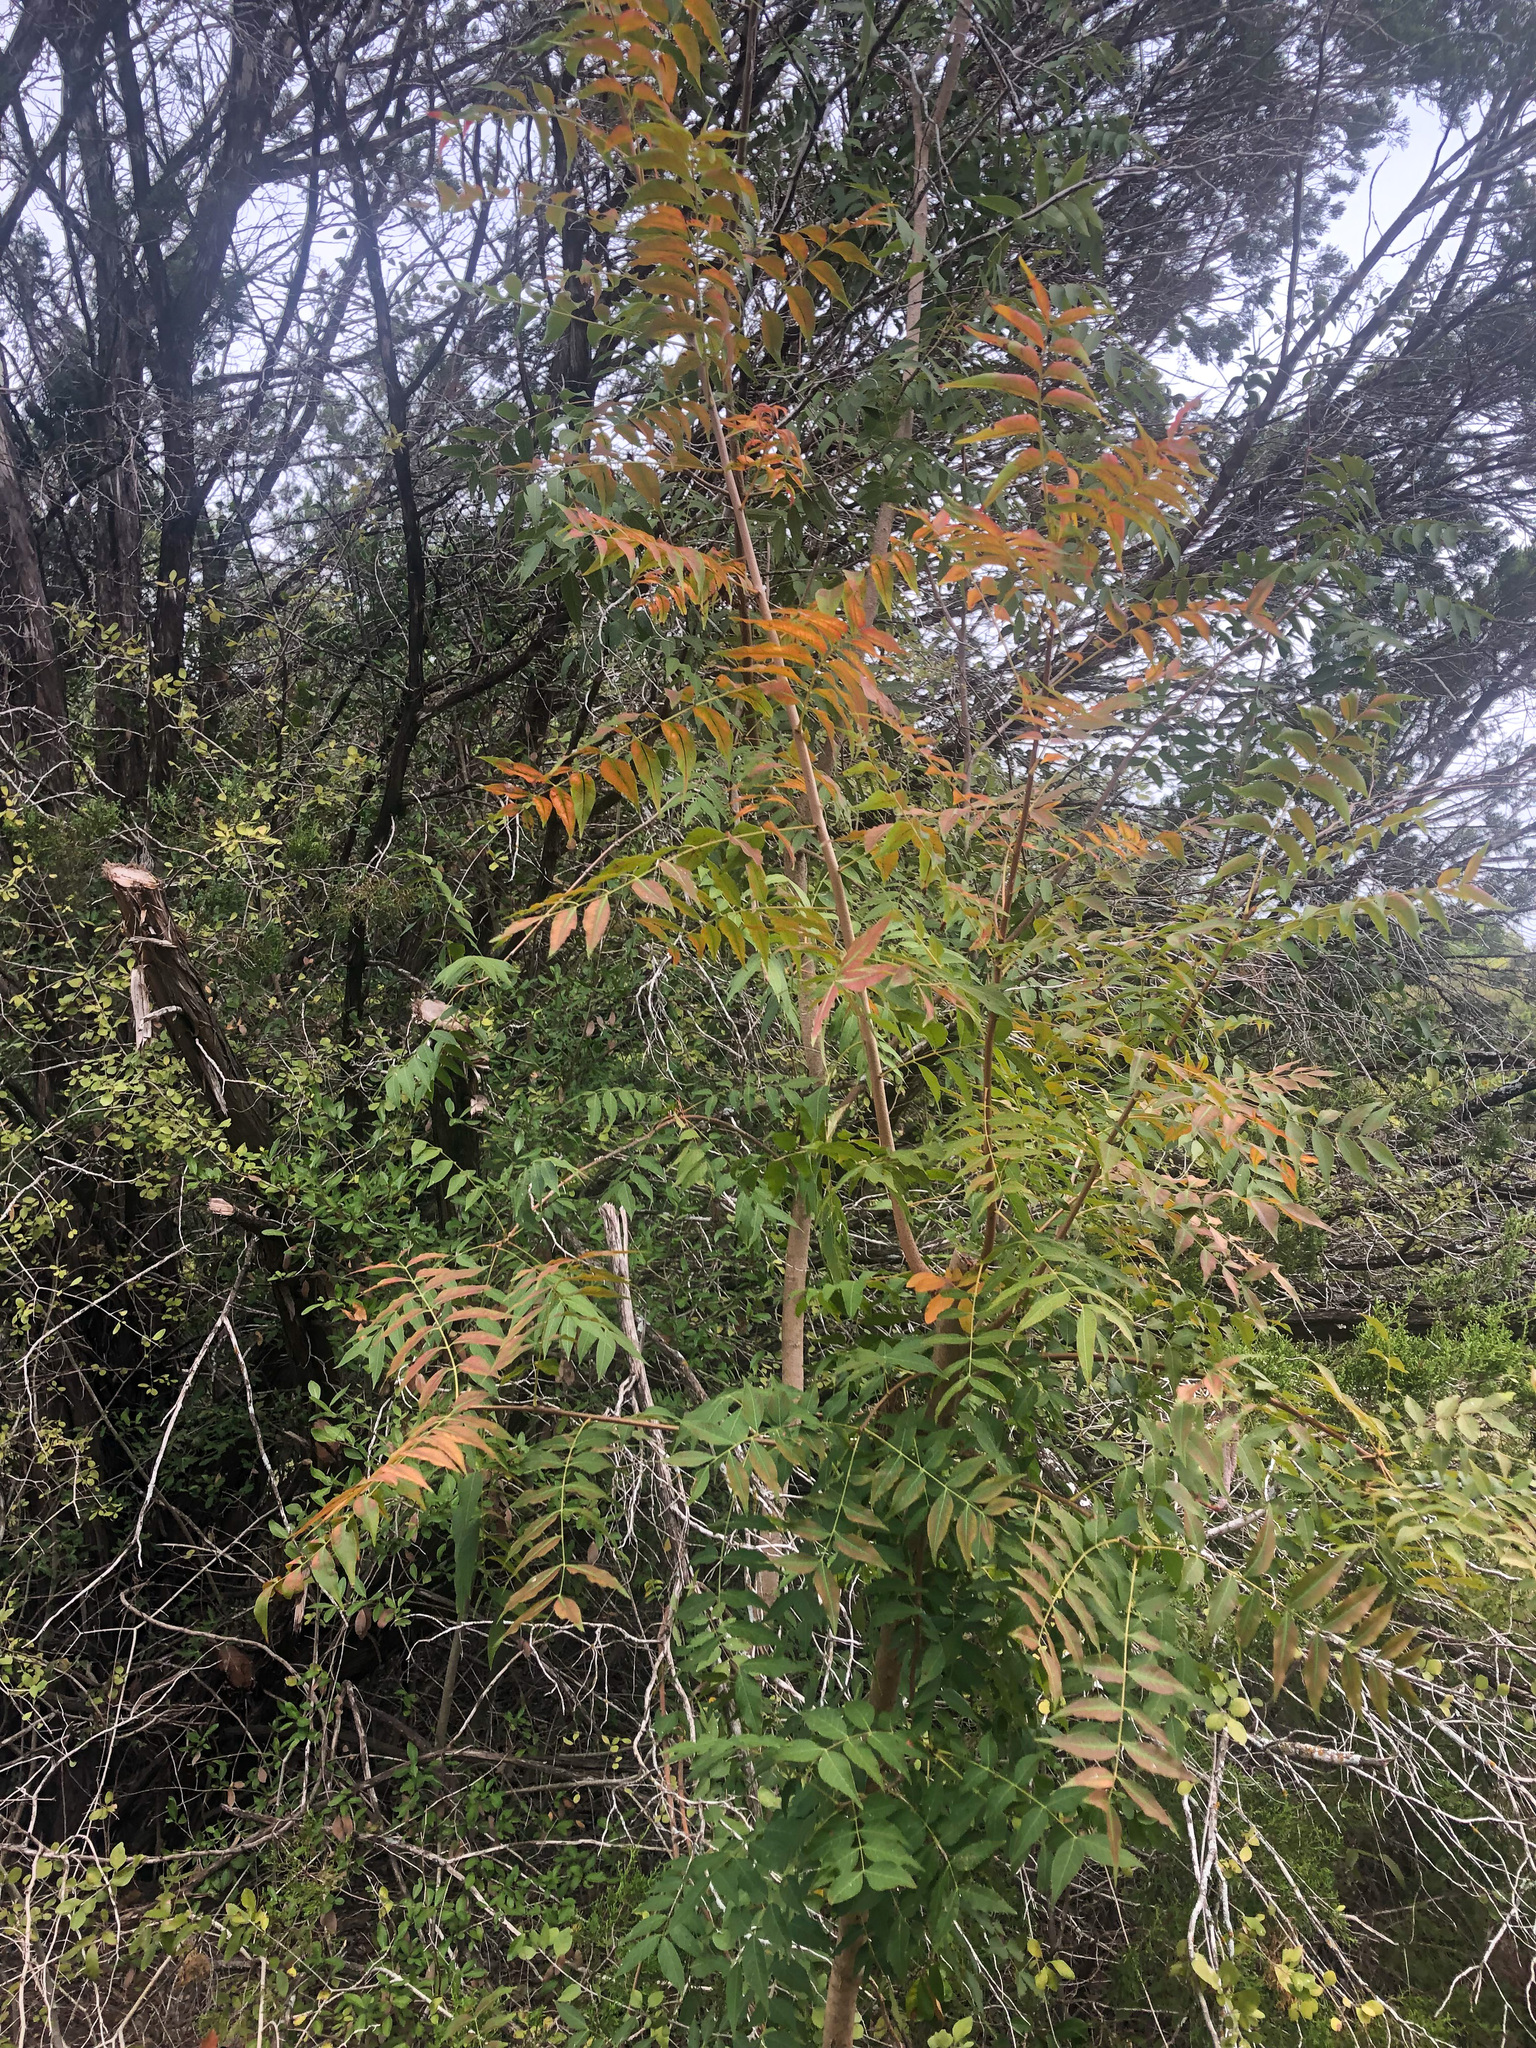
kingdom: Plantae
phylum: Tracheophyta
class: Magnoliopsida
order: Sapindales
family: Anacardiaceae
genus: Pistacia
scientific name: Pistacia chinensis
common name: Chinese pistache
